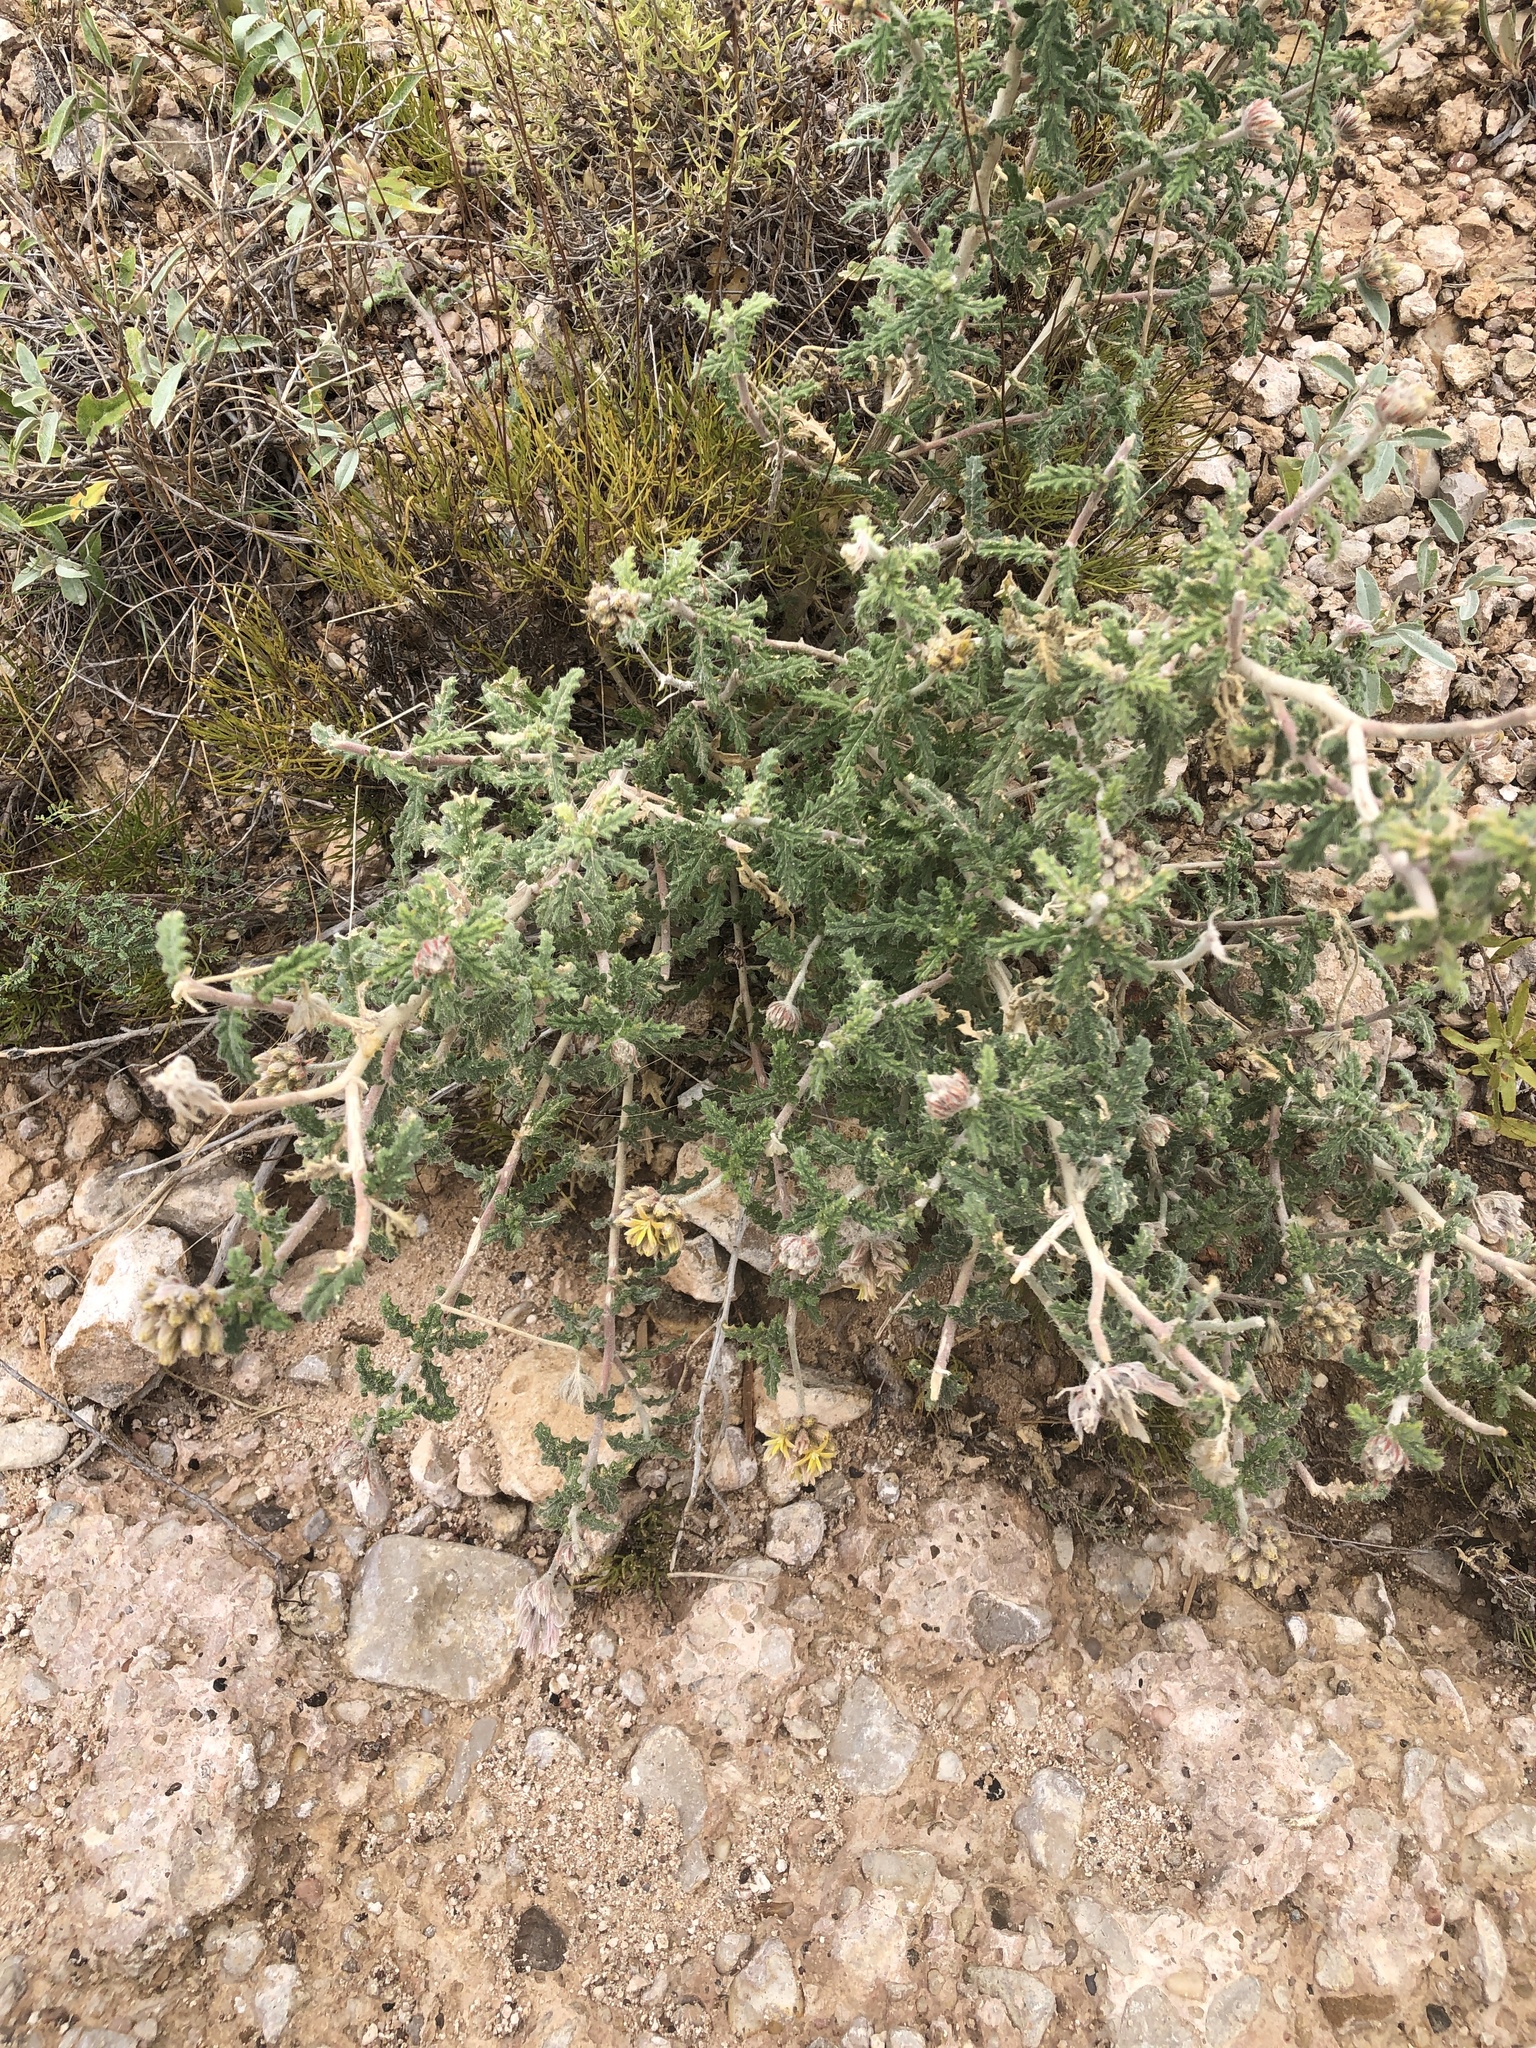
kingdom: Plantae
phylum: Tracheophyta
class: Magnoliopsida
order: Cornales
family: Loasaceae
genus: Cevallia
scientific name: Cevallia sinuata
